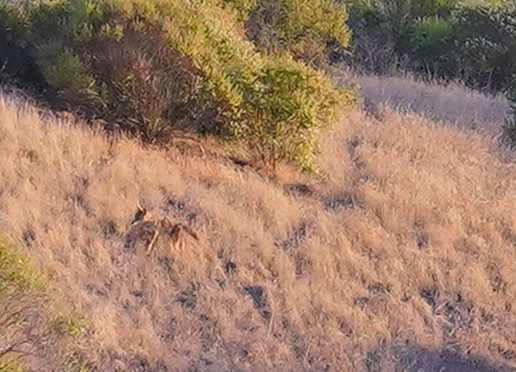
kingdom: Animalia
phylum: Chordata
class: Mammalia
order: Carnivora
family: Canidae
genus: Canis
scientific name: Canis latrans
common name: Coyote
